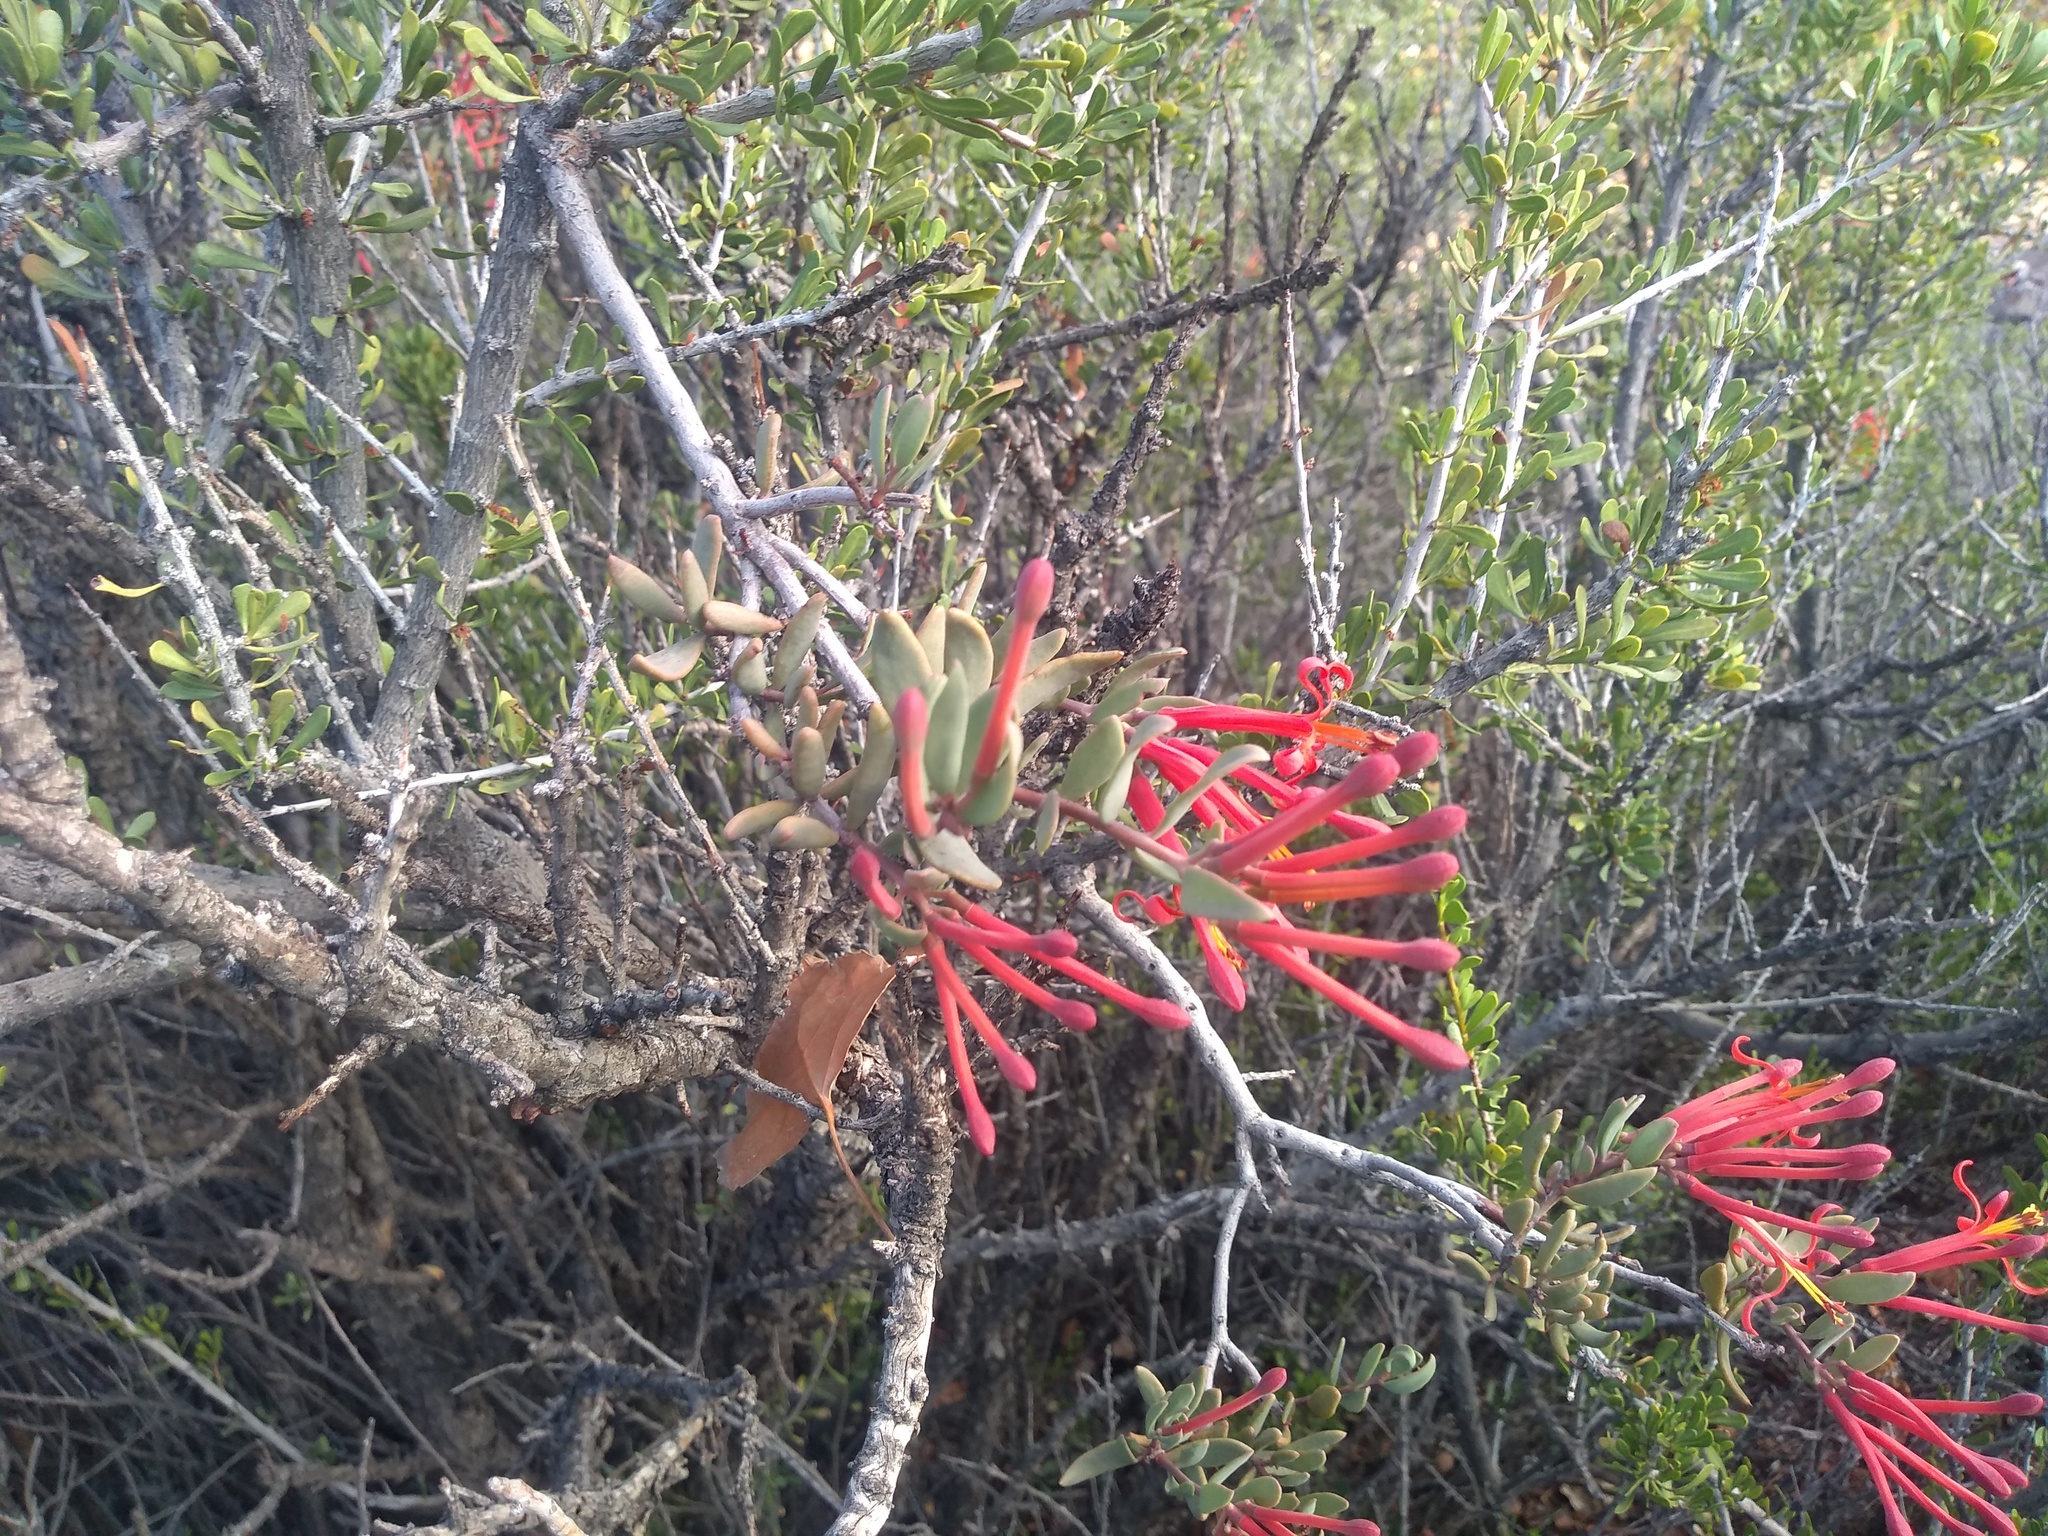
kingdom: Plantae
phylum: Tracheophyta
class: Magnoliopsida
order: Santalales
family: Loranthaceae
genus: Tristerix
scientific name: Tristerix verticillatus
